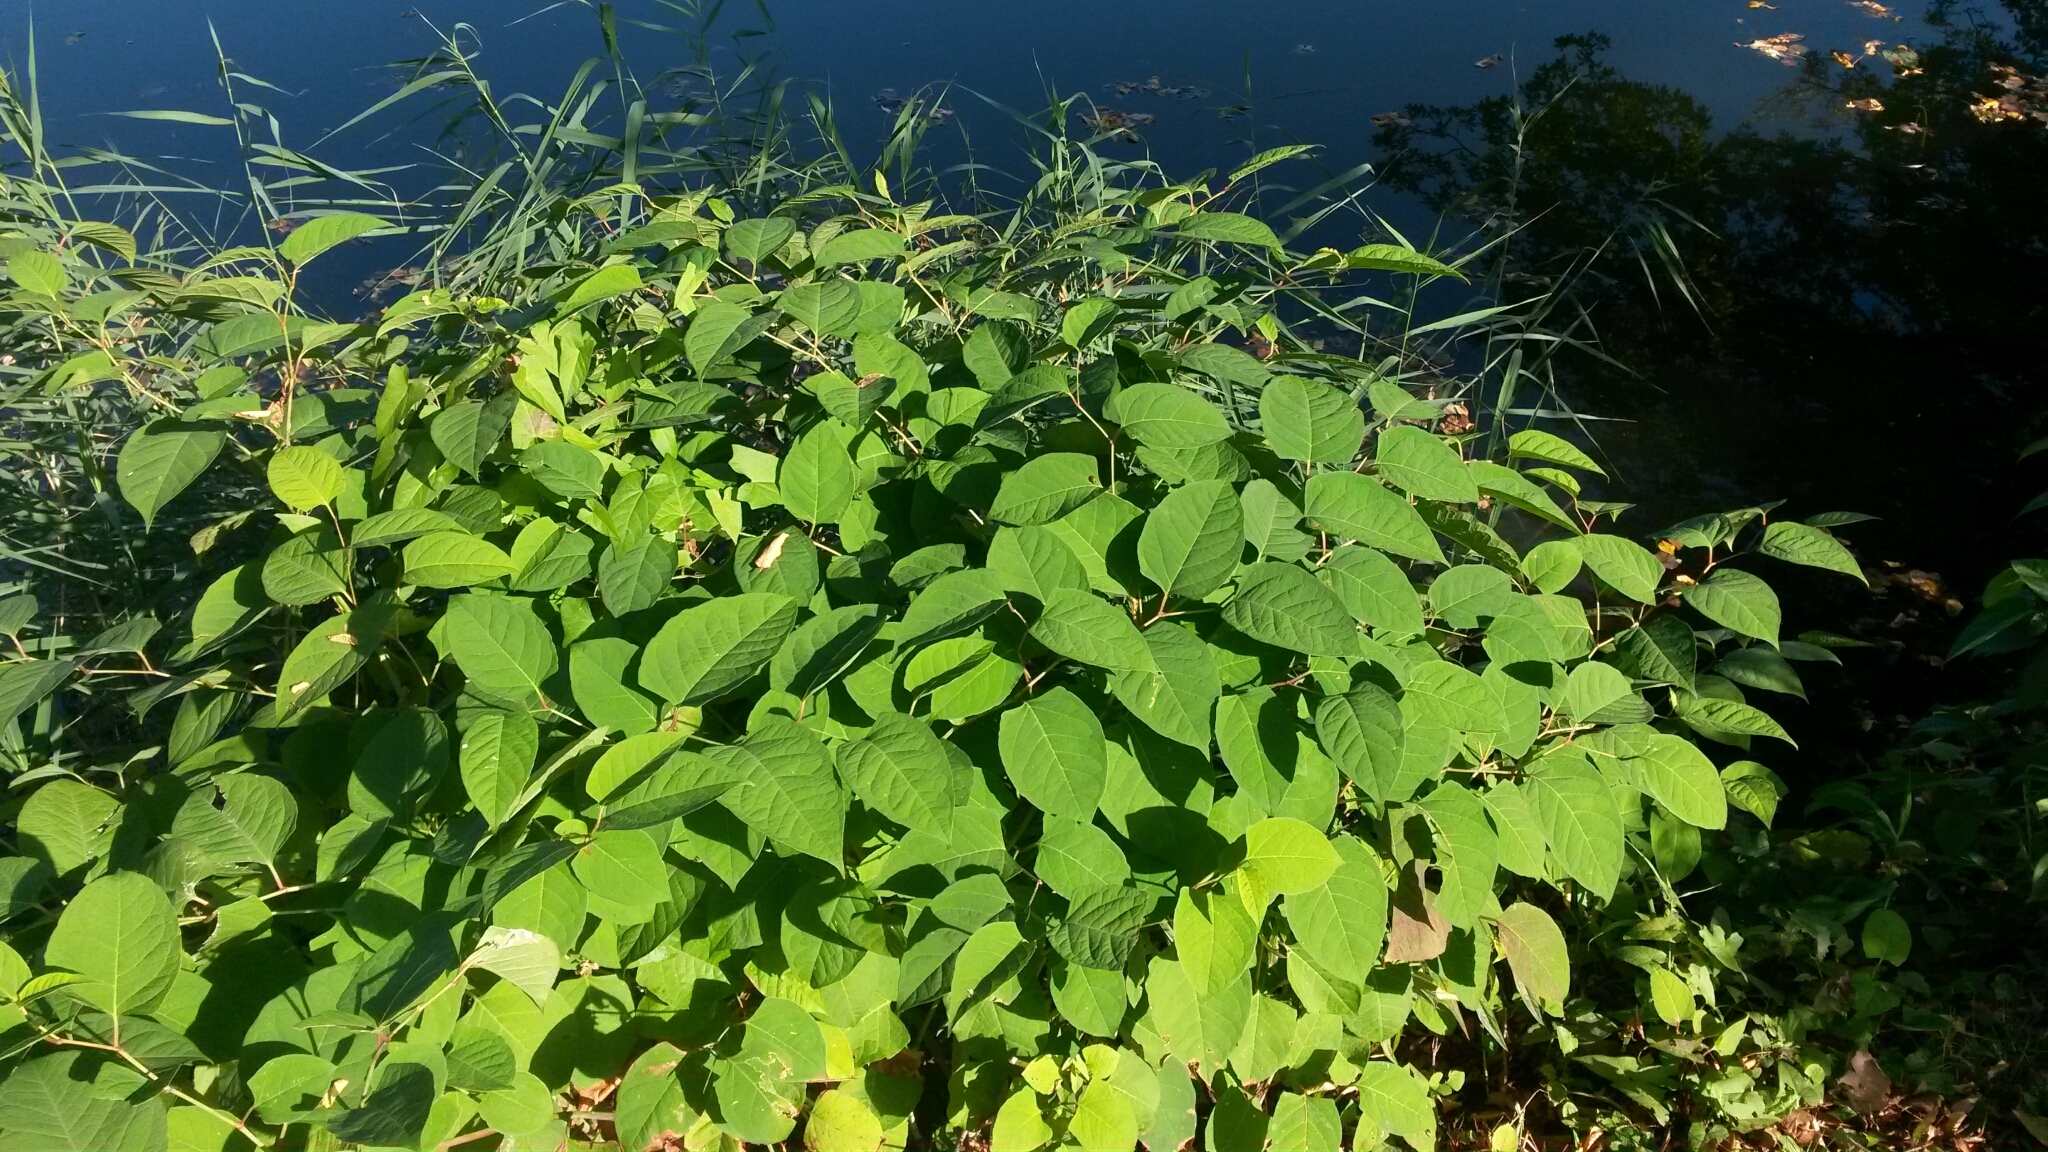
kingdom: Plantae
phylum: Tracheophyta
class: Magnoliopsida
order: Caryophyllales
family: Polygonaceae
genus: Reynoutria
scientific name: Reynoutria japonica
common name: Japanese knotweed
